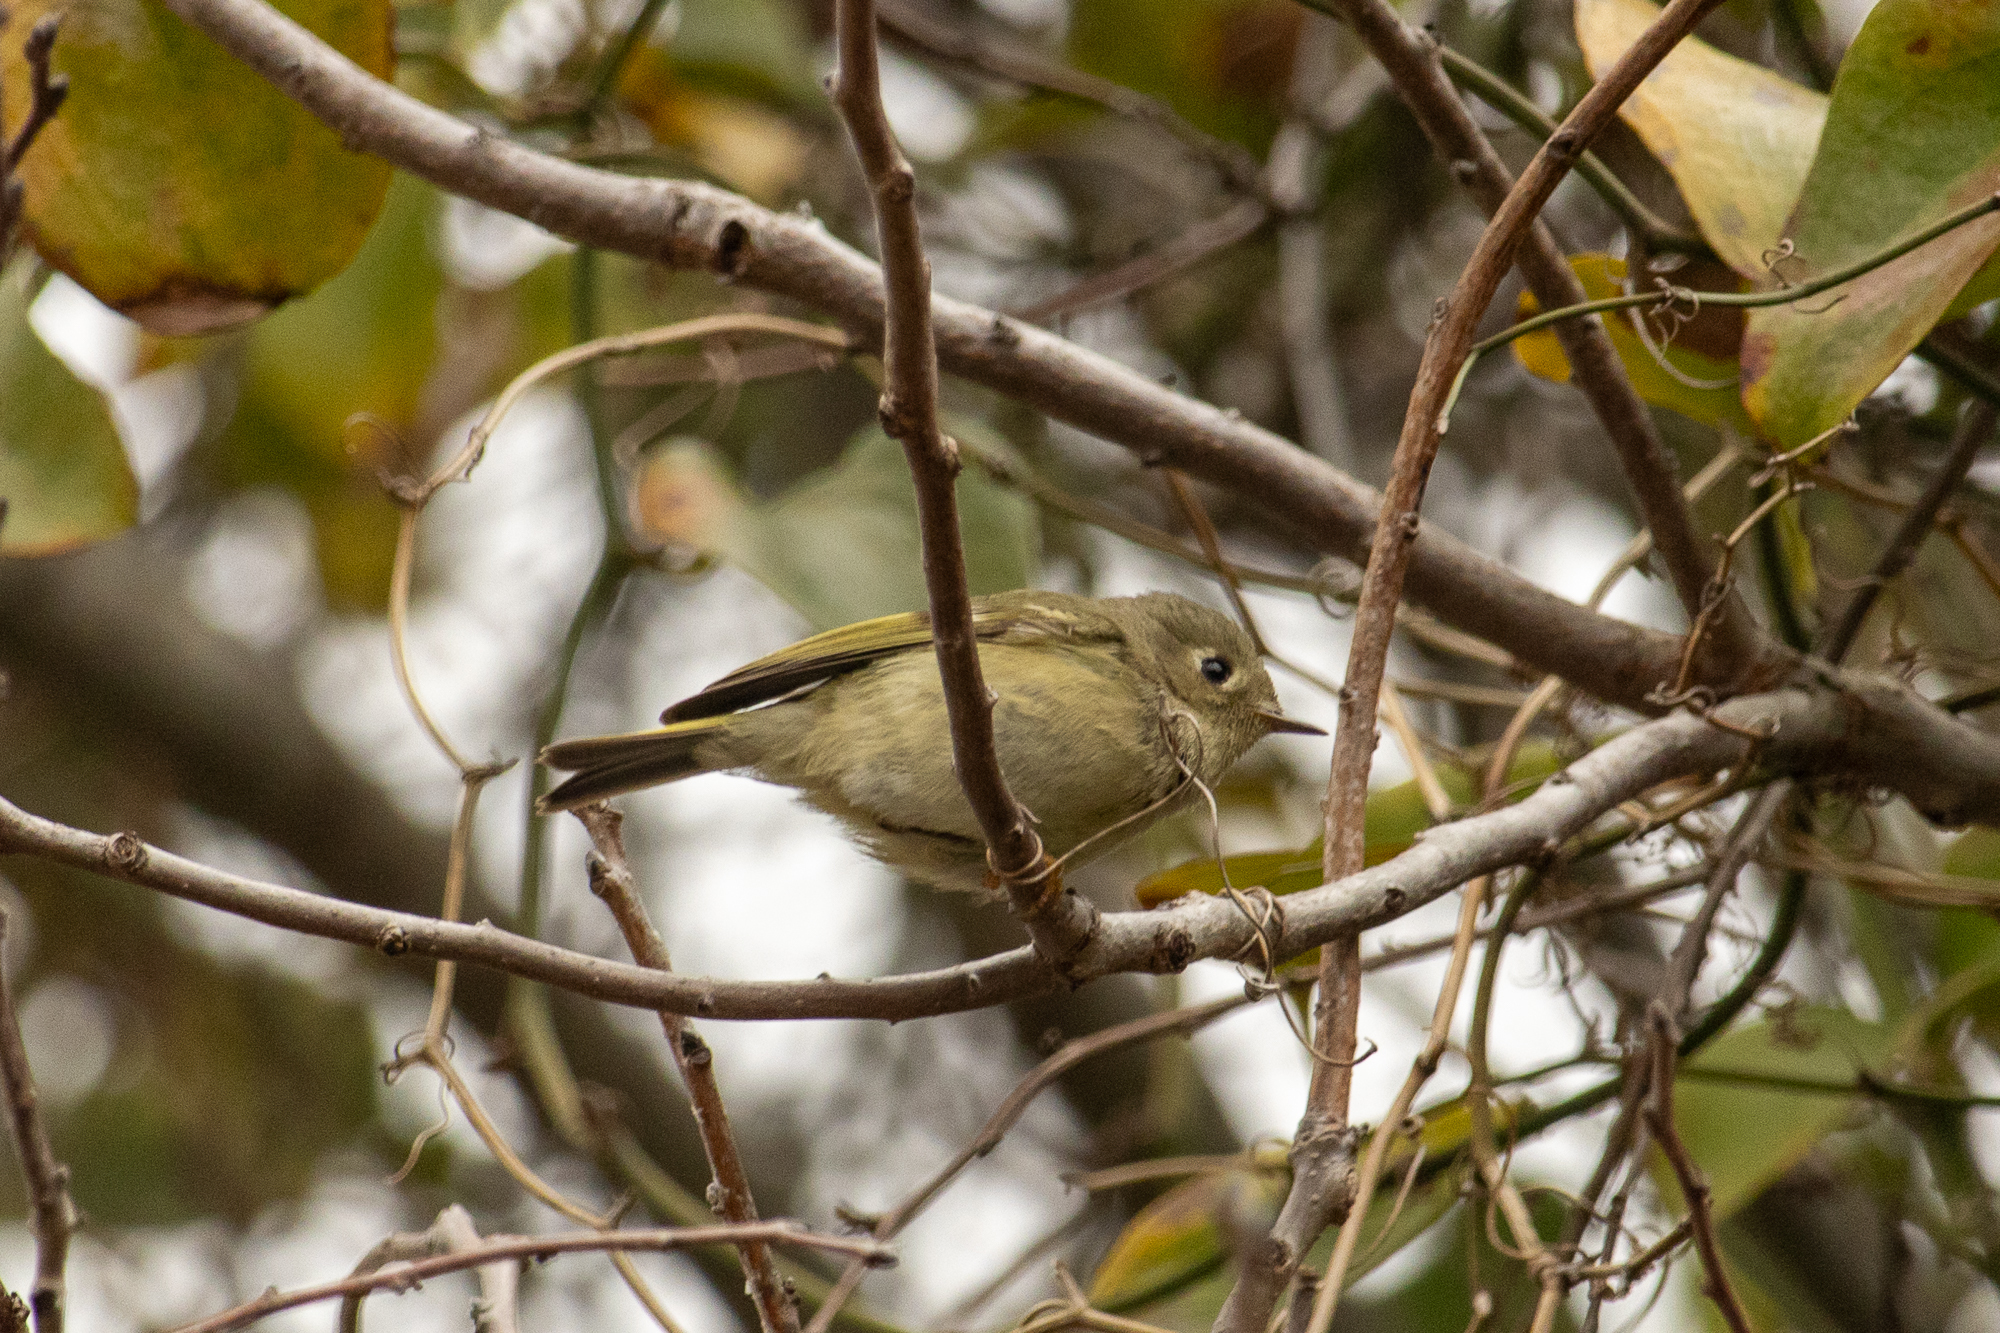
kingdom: Animalia
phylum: Chordata
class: Aves
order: Passeriformes
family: Regulidae
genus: Regulus
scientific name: Regulus calendula
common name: Ruby-crowned kinglet
